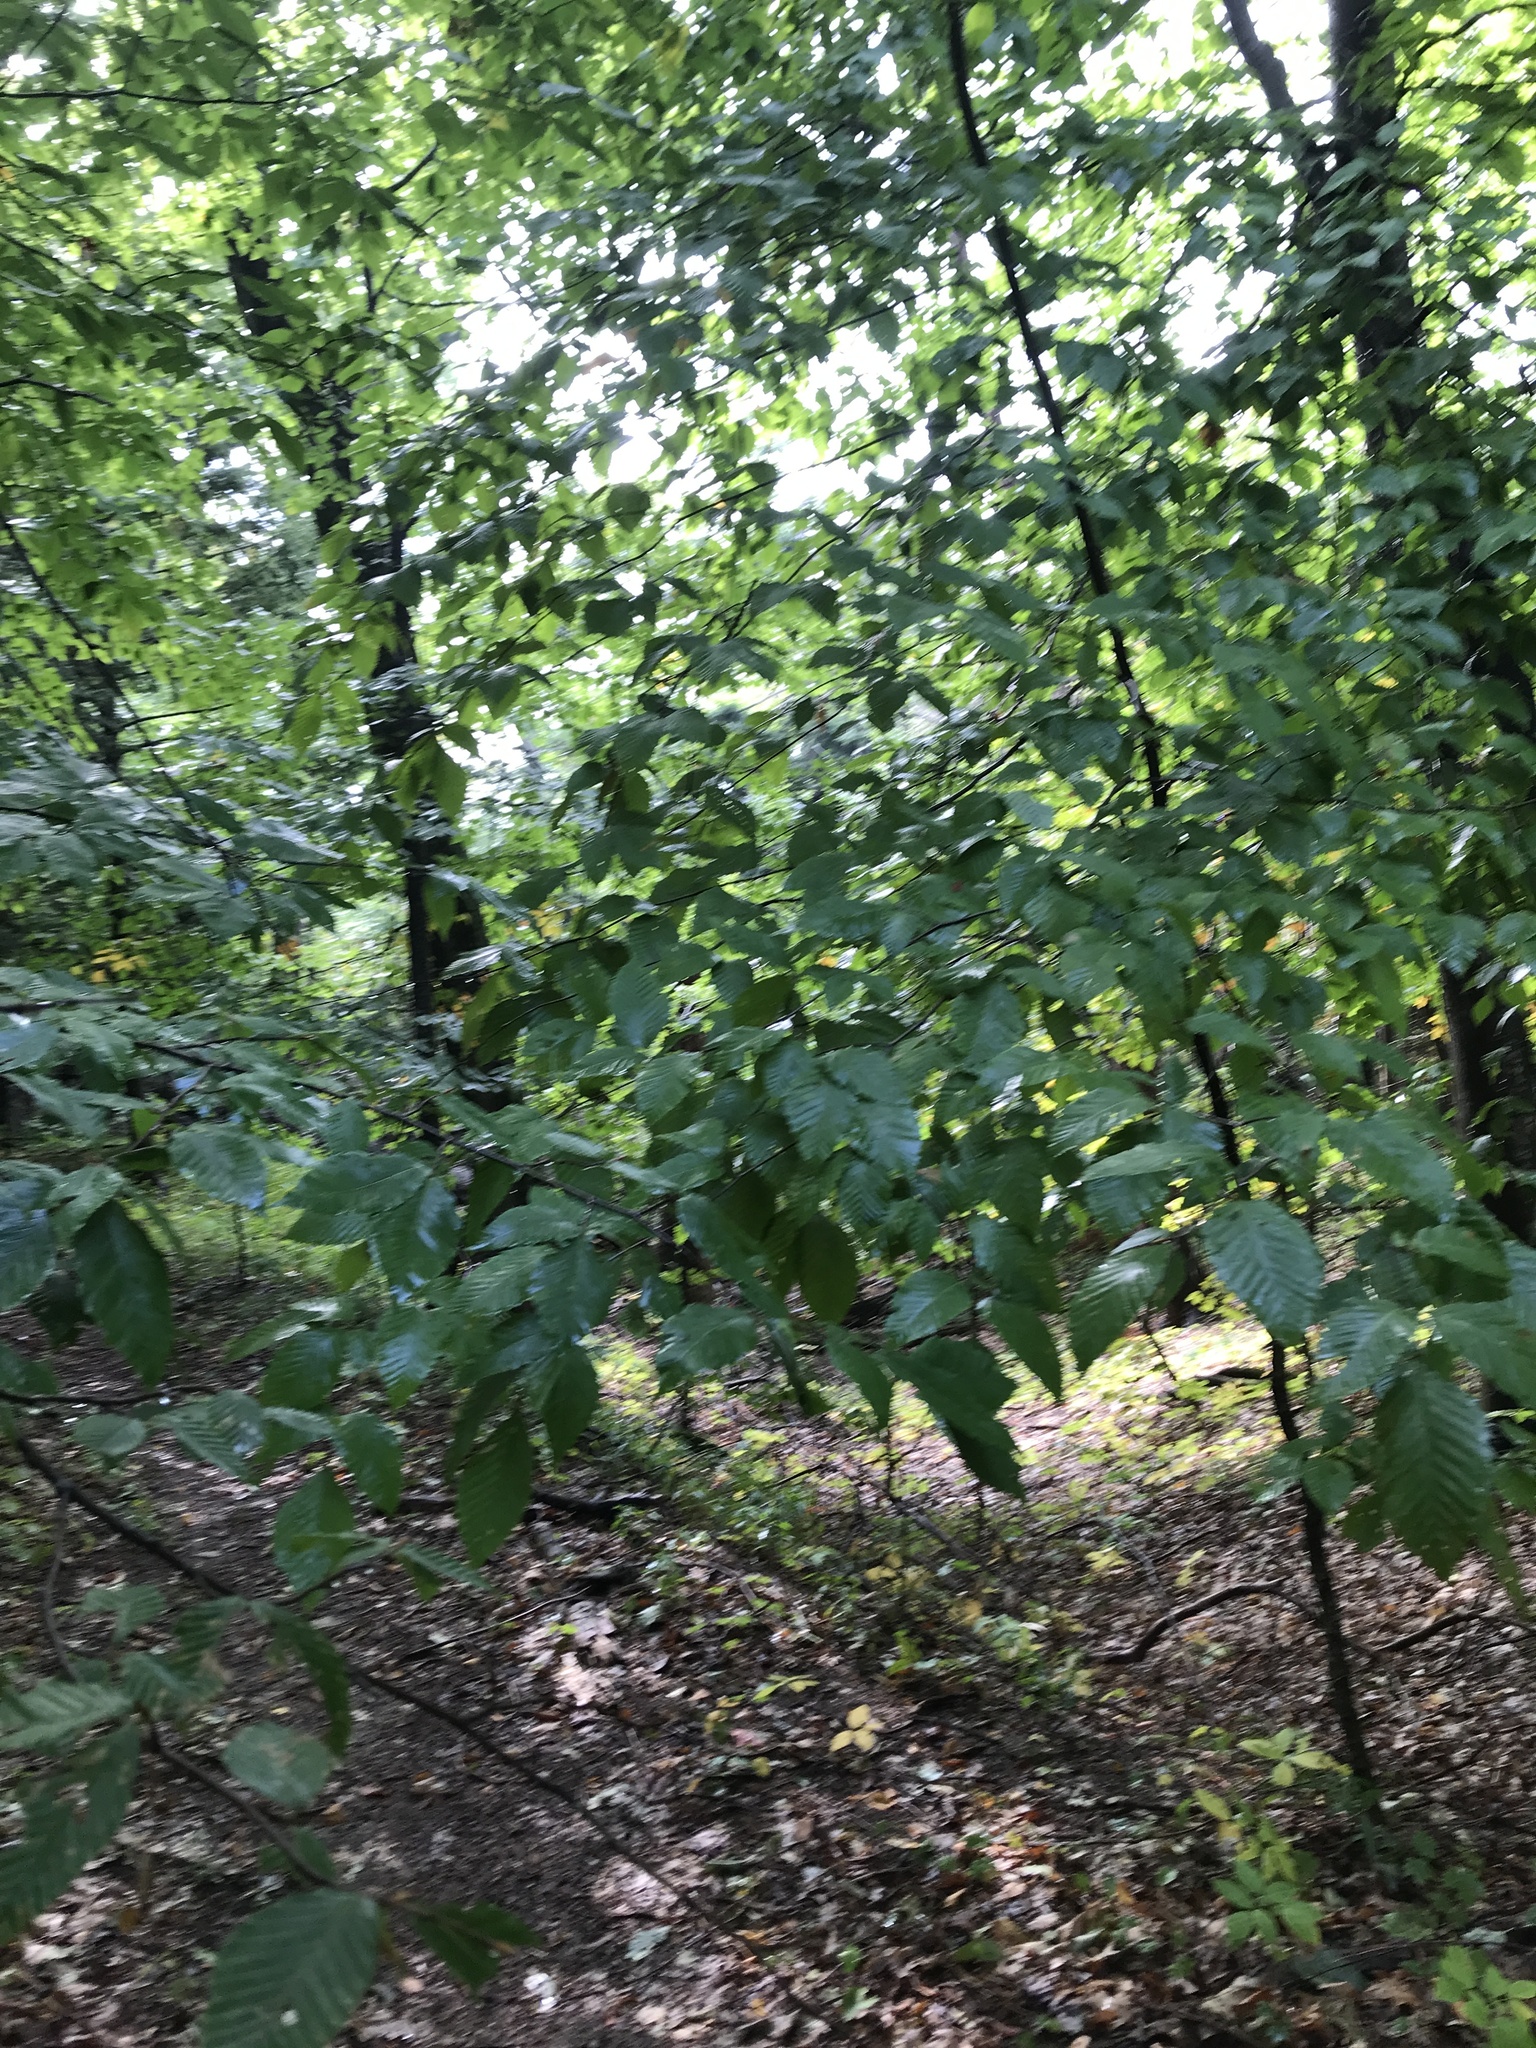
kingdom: Plantae
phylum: Tracheophyta
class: Magnoliopsida
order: Fagales
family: Fagaceae
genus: Fagus
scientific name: Fagus grandifolia
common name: American beech
